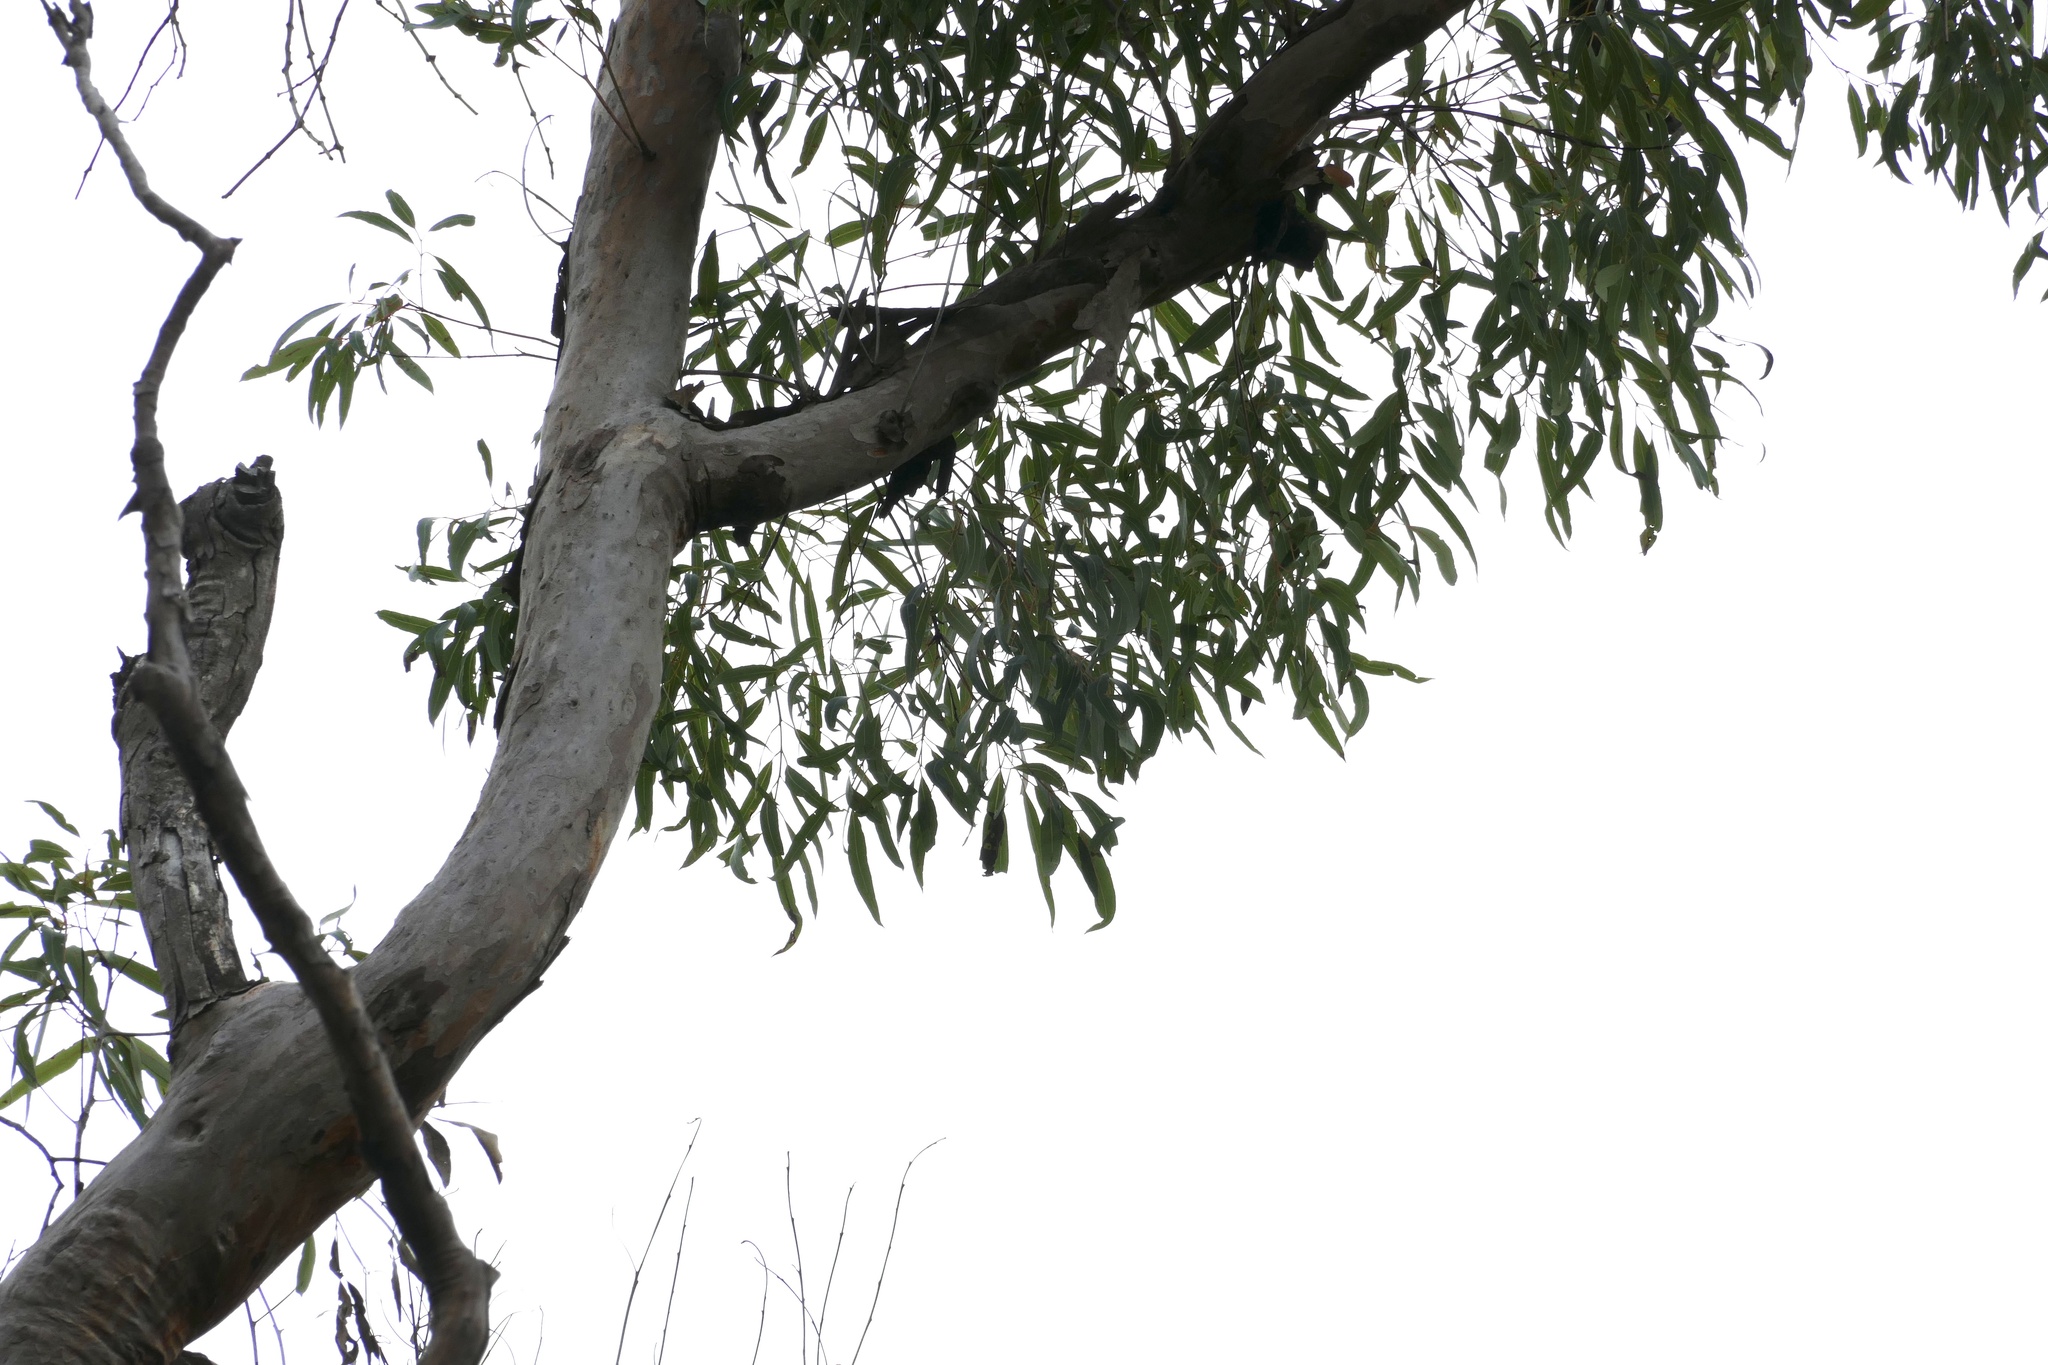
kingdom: Plantae
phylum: Tracheophyta
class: Magnoliopsida
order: Myrtales
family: Myrtaceae
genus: Eucalyptus
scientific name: Eucalyptus fibrosa
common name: Red ironbark
